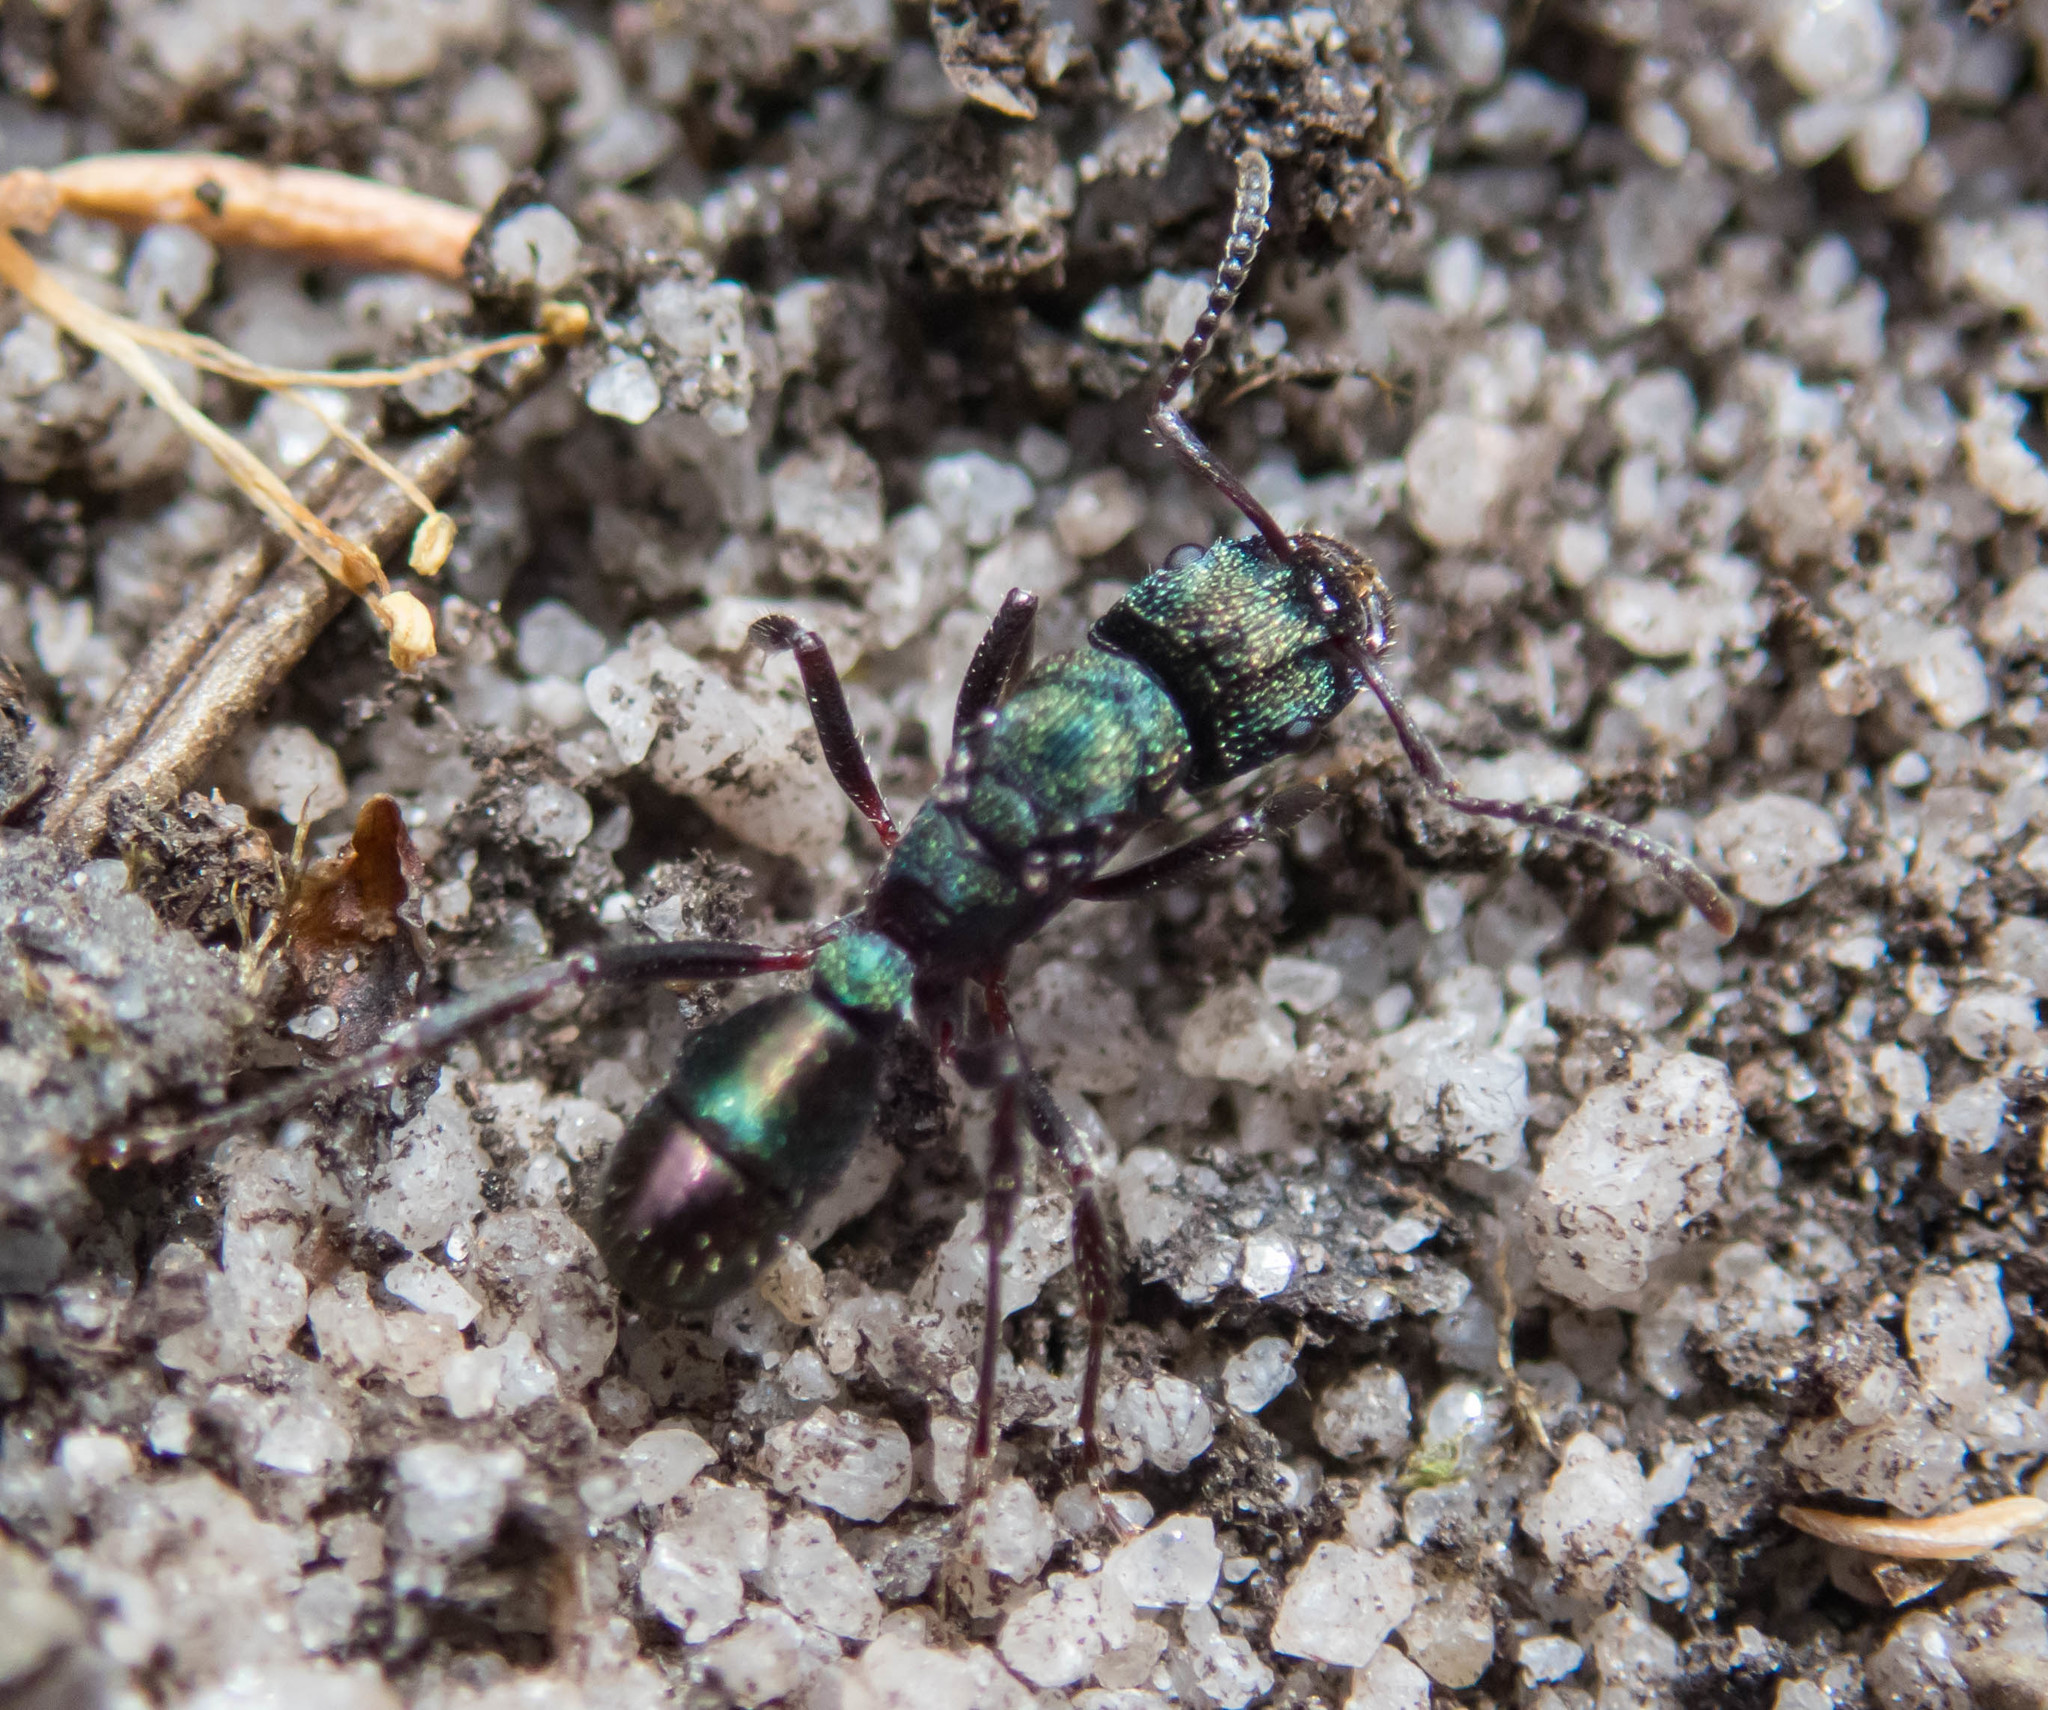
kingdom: Animalia
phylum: Arthropoda
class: Insecta
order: Hymenoptera
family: Formicidae
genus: Rhytidoponera
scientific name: Rhytidoponera metallica
